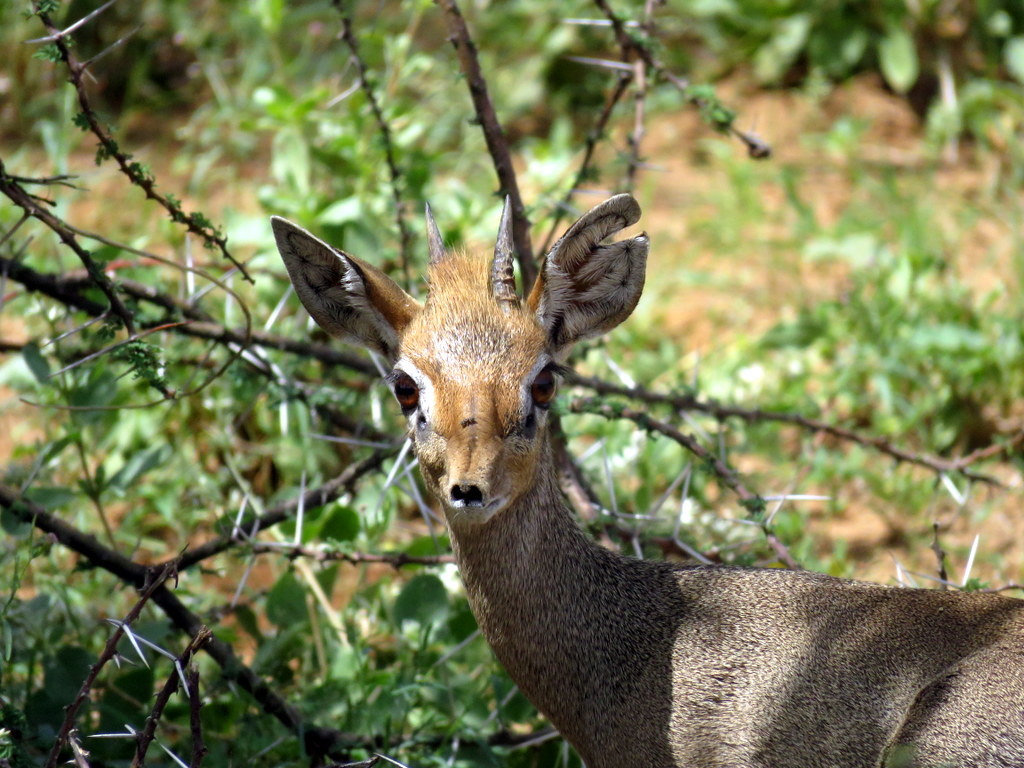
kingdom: Animalia
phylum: Chordata
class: Mammalia
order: Artiodactyla
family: Bovidae
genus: Madoqua
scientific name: Madoqua kirkii
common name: Kirk's dik-dik
